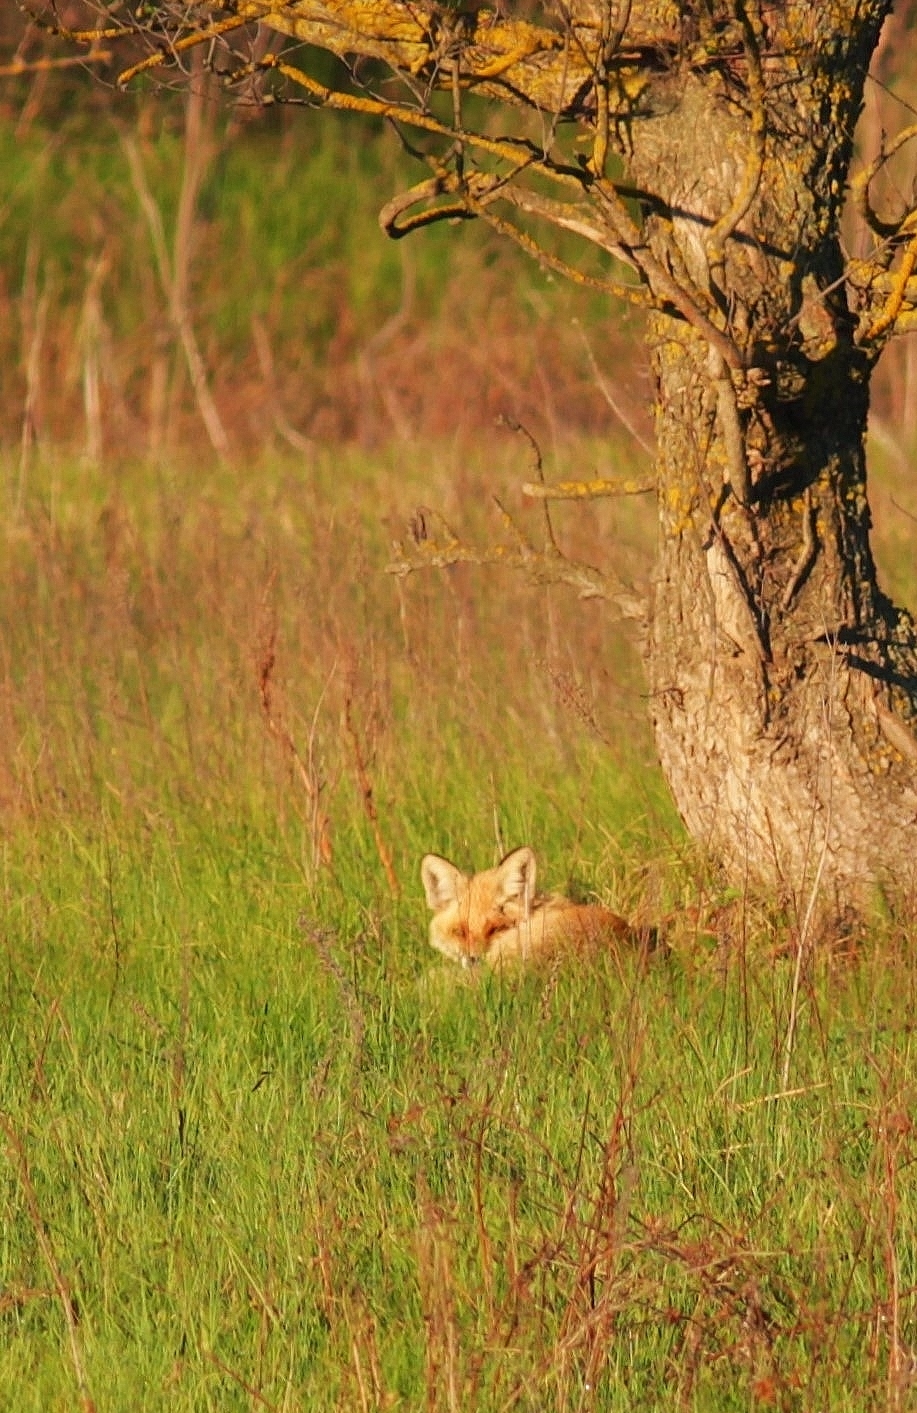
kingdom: Animalia
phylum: Chordata
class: Mammalia
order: Carnivora
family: Canidae
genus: Vulpes
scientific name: Vulpes vulpes
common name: Red fox
